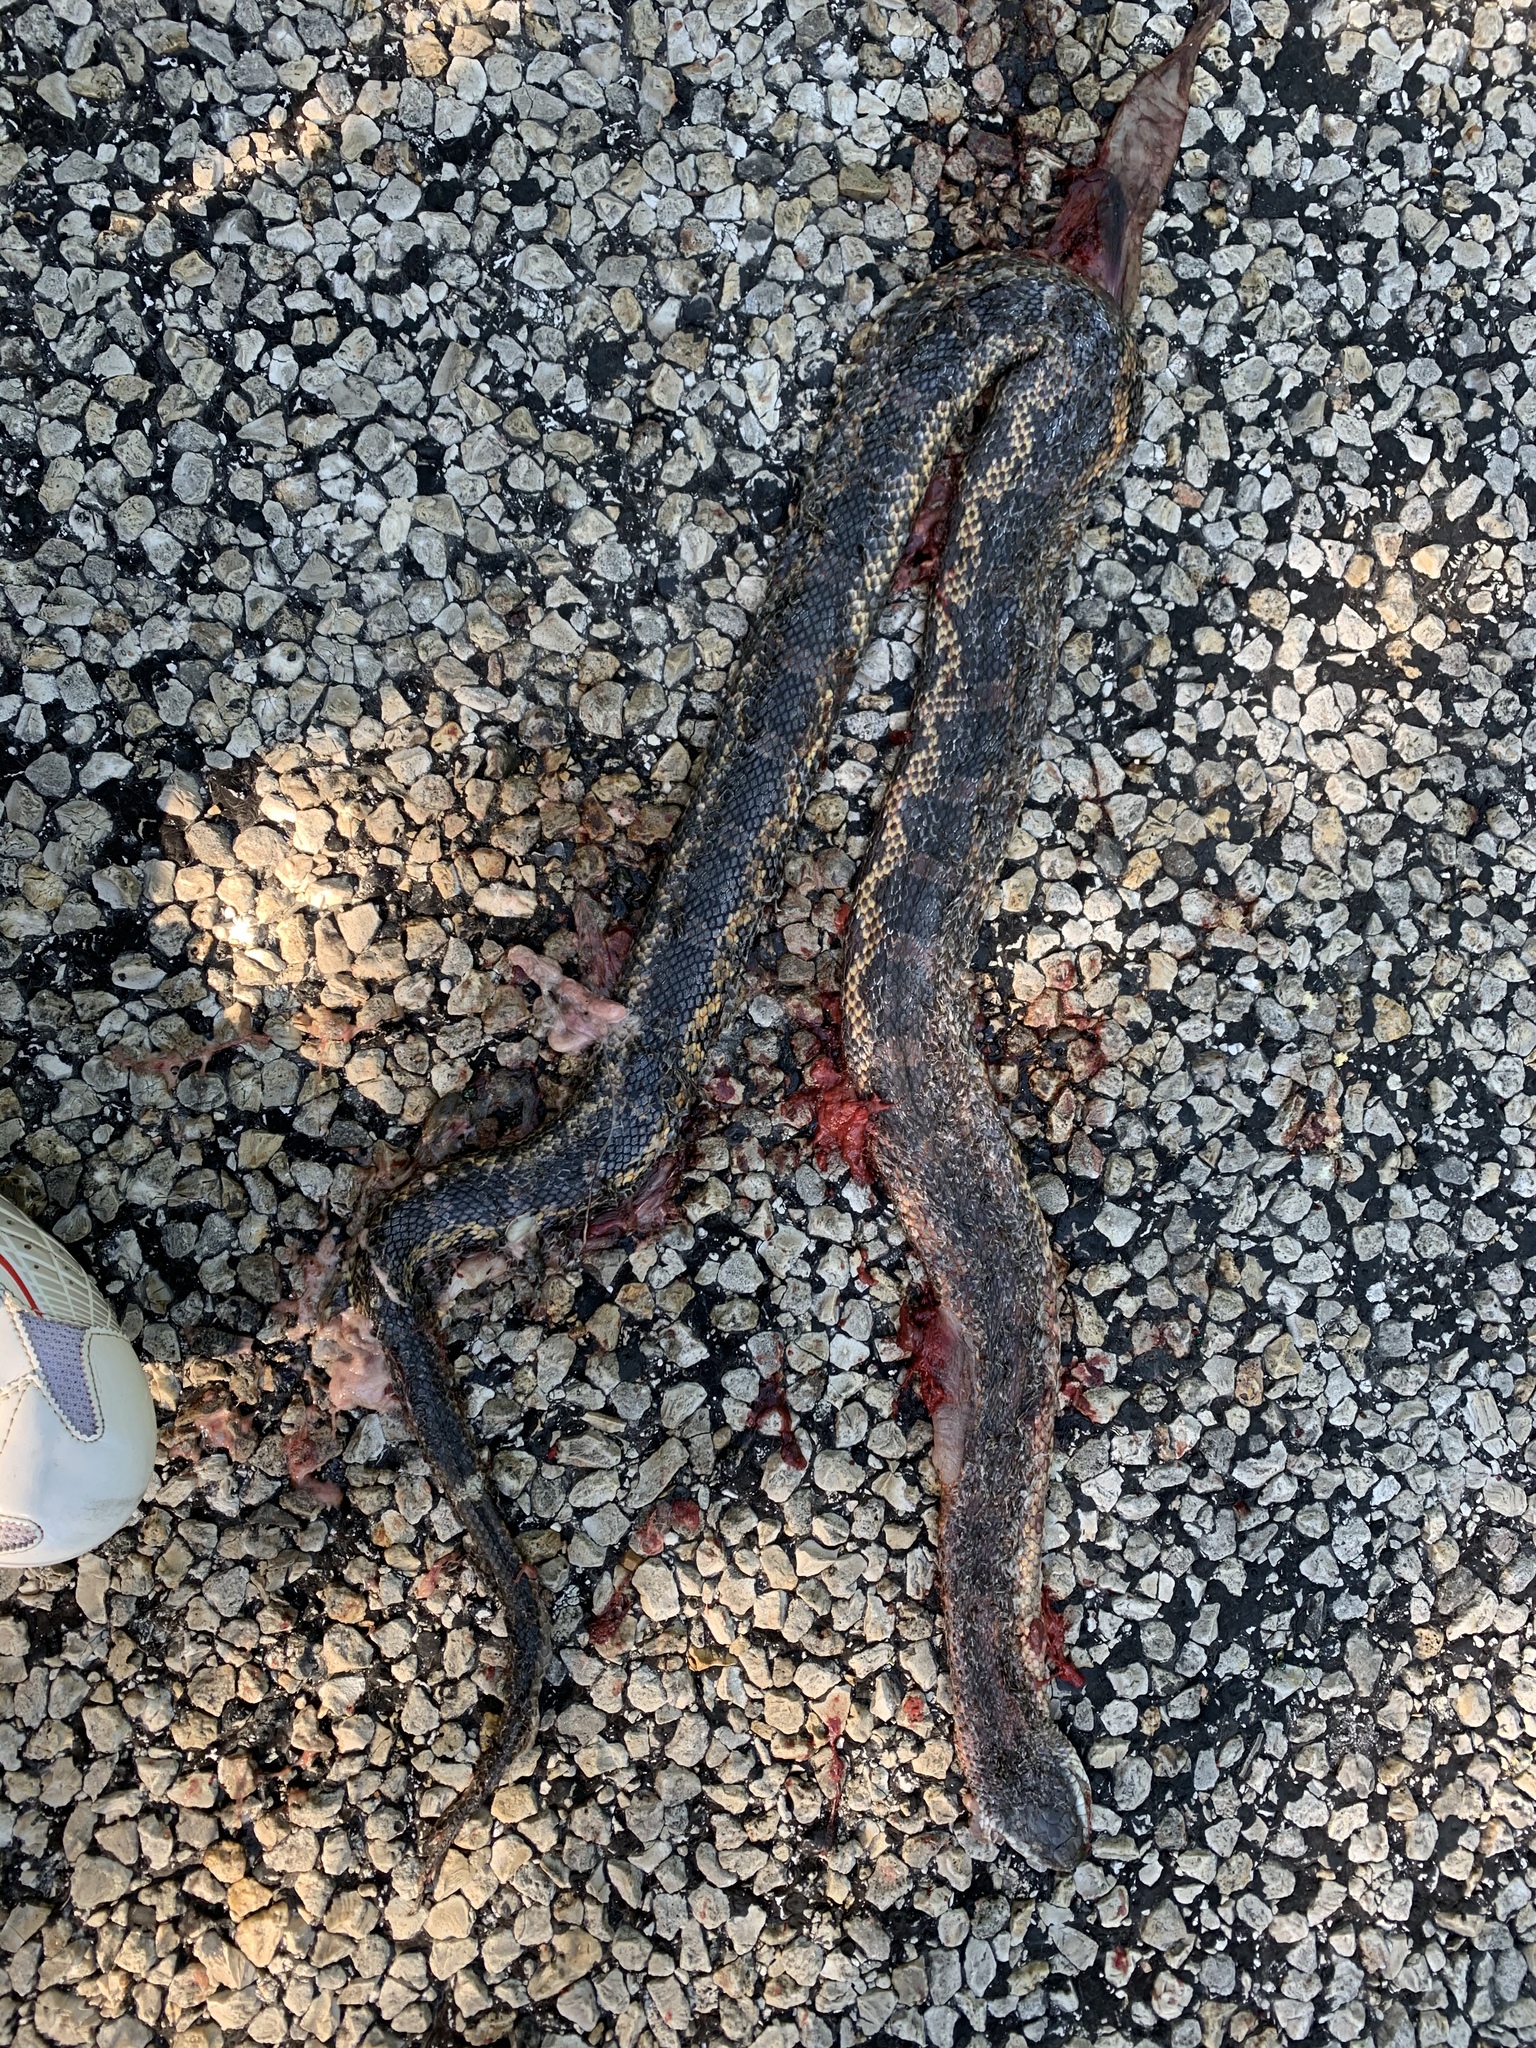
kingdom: Animalia
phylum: Chordata
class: Squamata
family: Colubridae
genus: Pantherophis
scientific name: Pantherophis obsoletus
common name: Black rat snake
